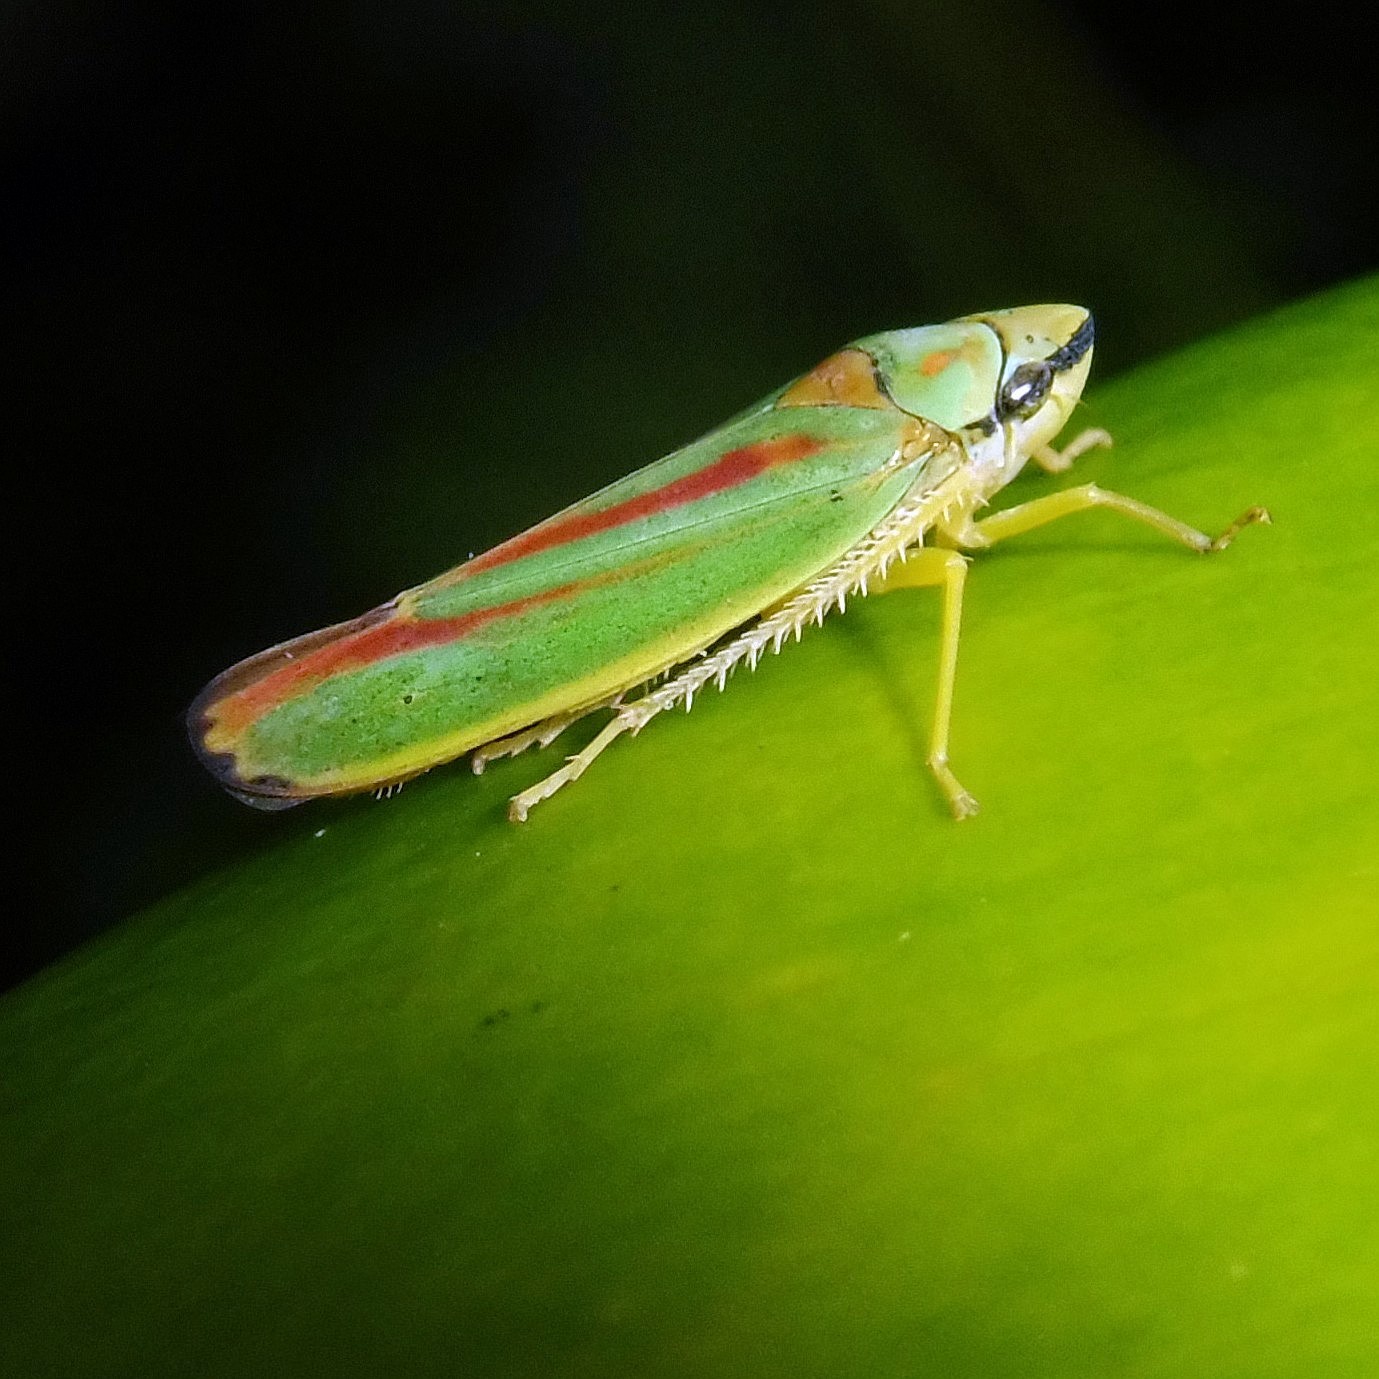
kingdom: Animalia
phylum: Arthropoda
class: Insecta
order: Hemiptera
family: Cicadellidae
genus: Graphocephala
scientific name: Graphocephala fennahi
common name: Rhododendron leafhopper
